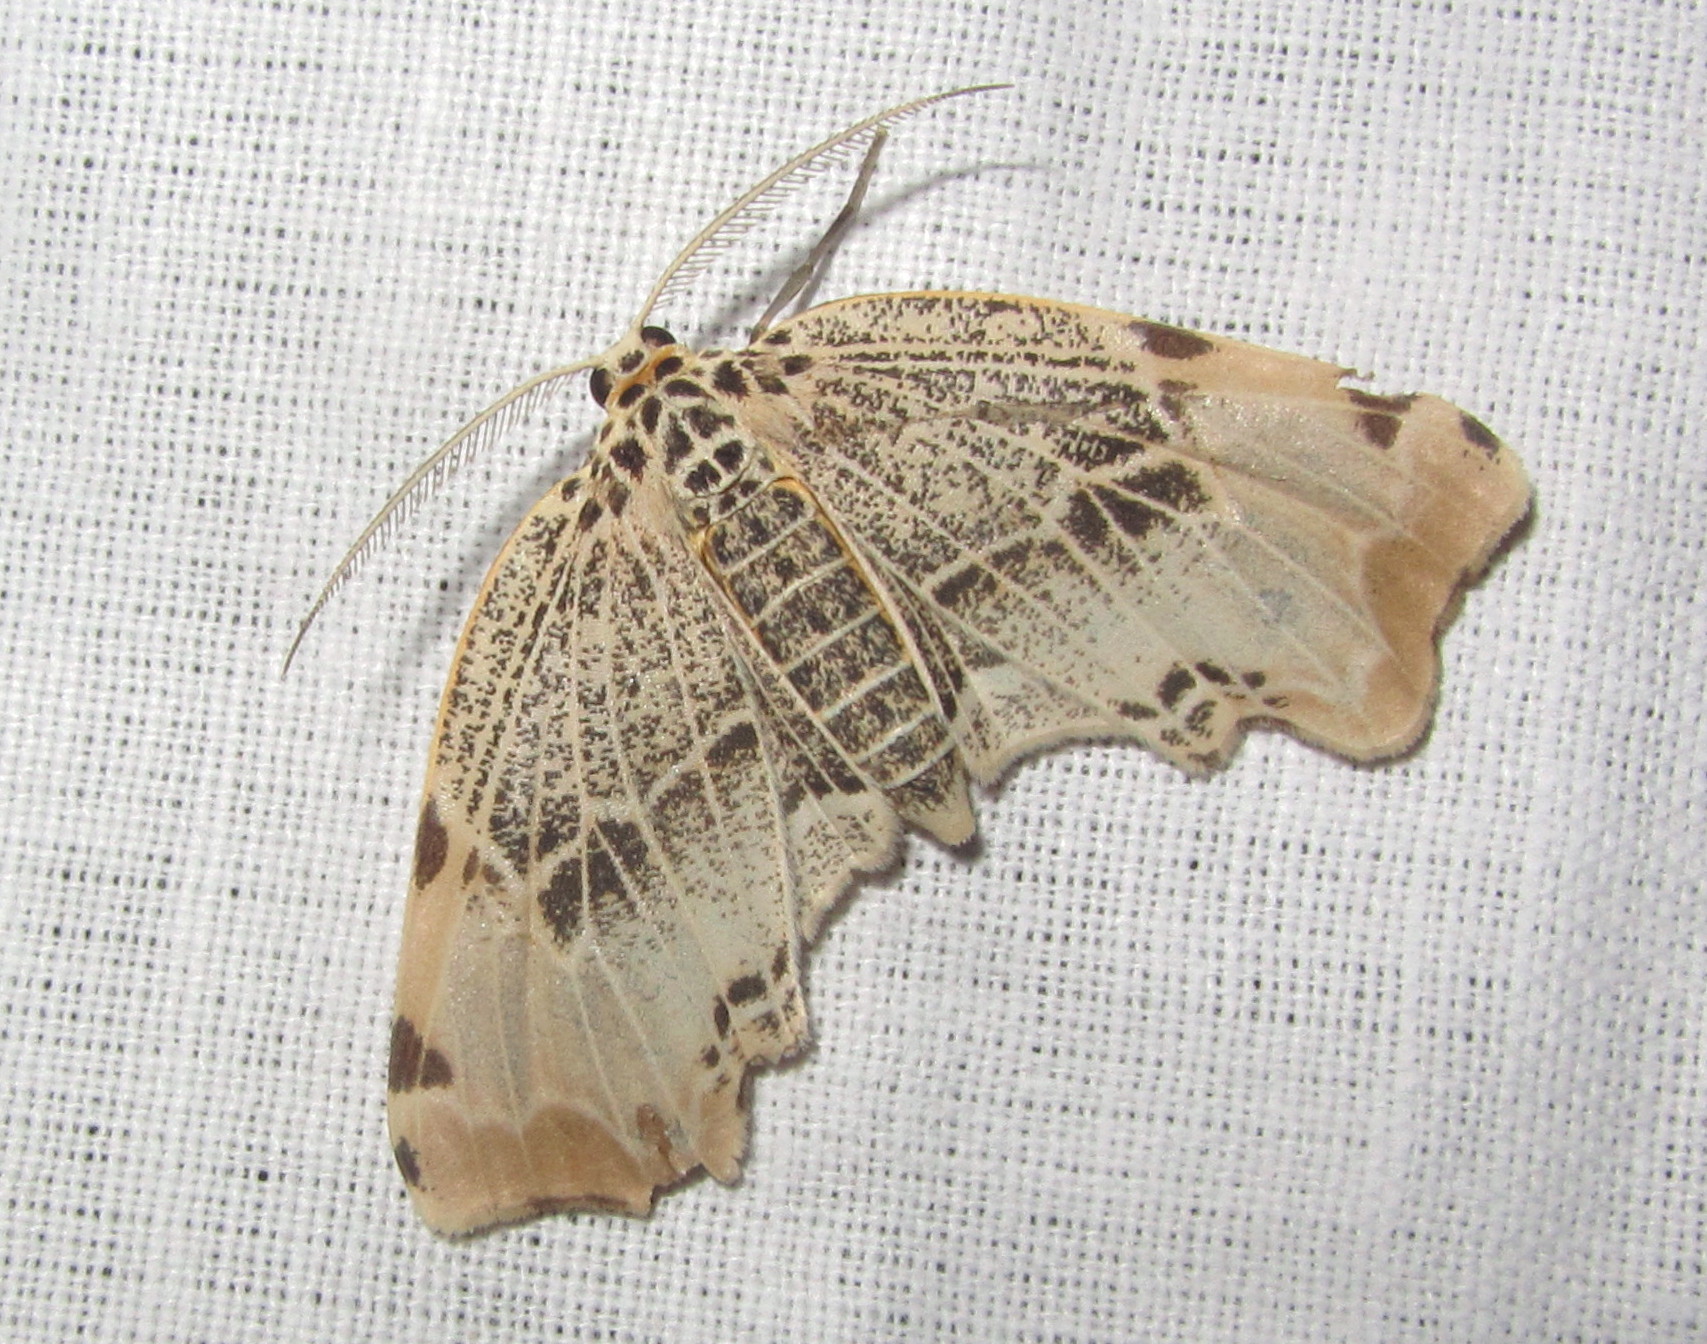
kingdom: Animalia
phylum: Arthropoda
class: Insecta
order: Lepidoptera
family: Geometridae
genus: Achrosis
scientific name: Achrosis pyrrhularia
